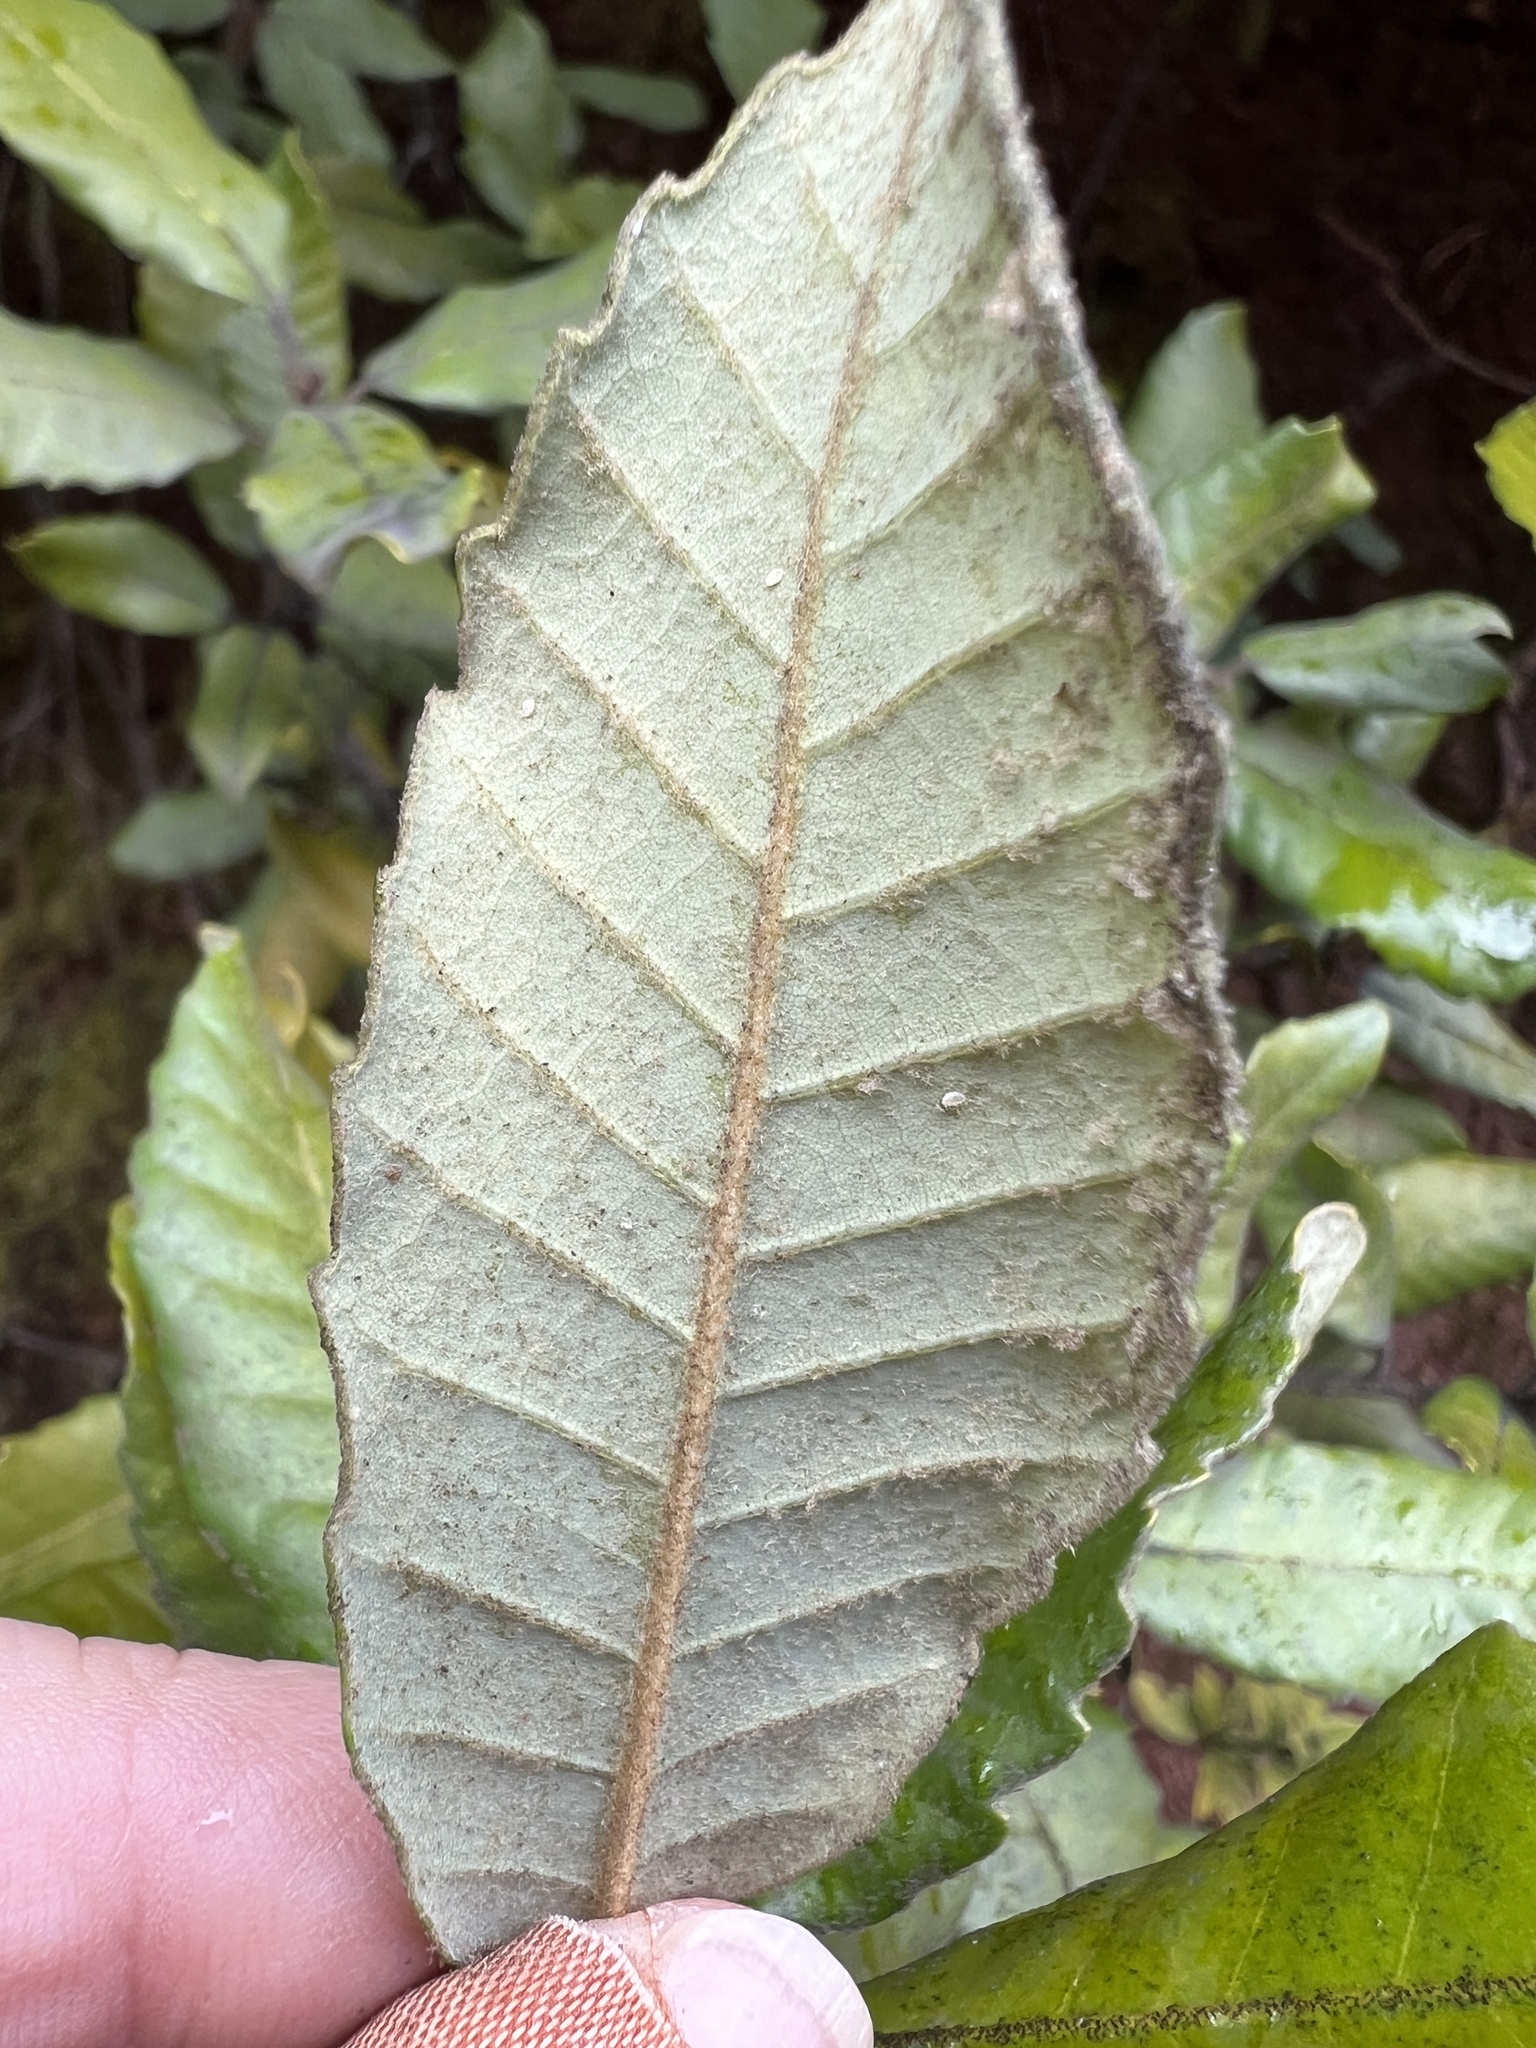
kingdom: Plantae
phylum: Tracheophyta
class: Magnoliopsida
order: Fagales
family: Fagaceae
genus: Notholithocarpus
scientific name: Notholithocarpus densiflorus
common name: Tan bark oak
